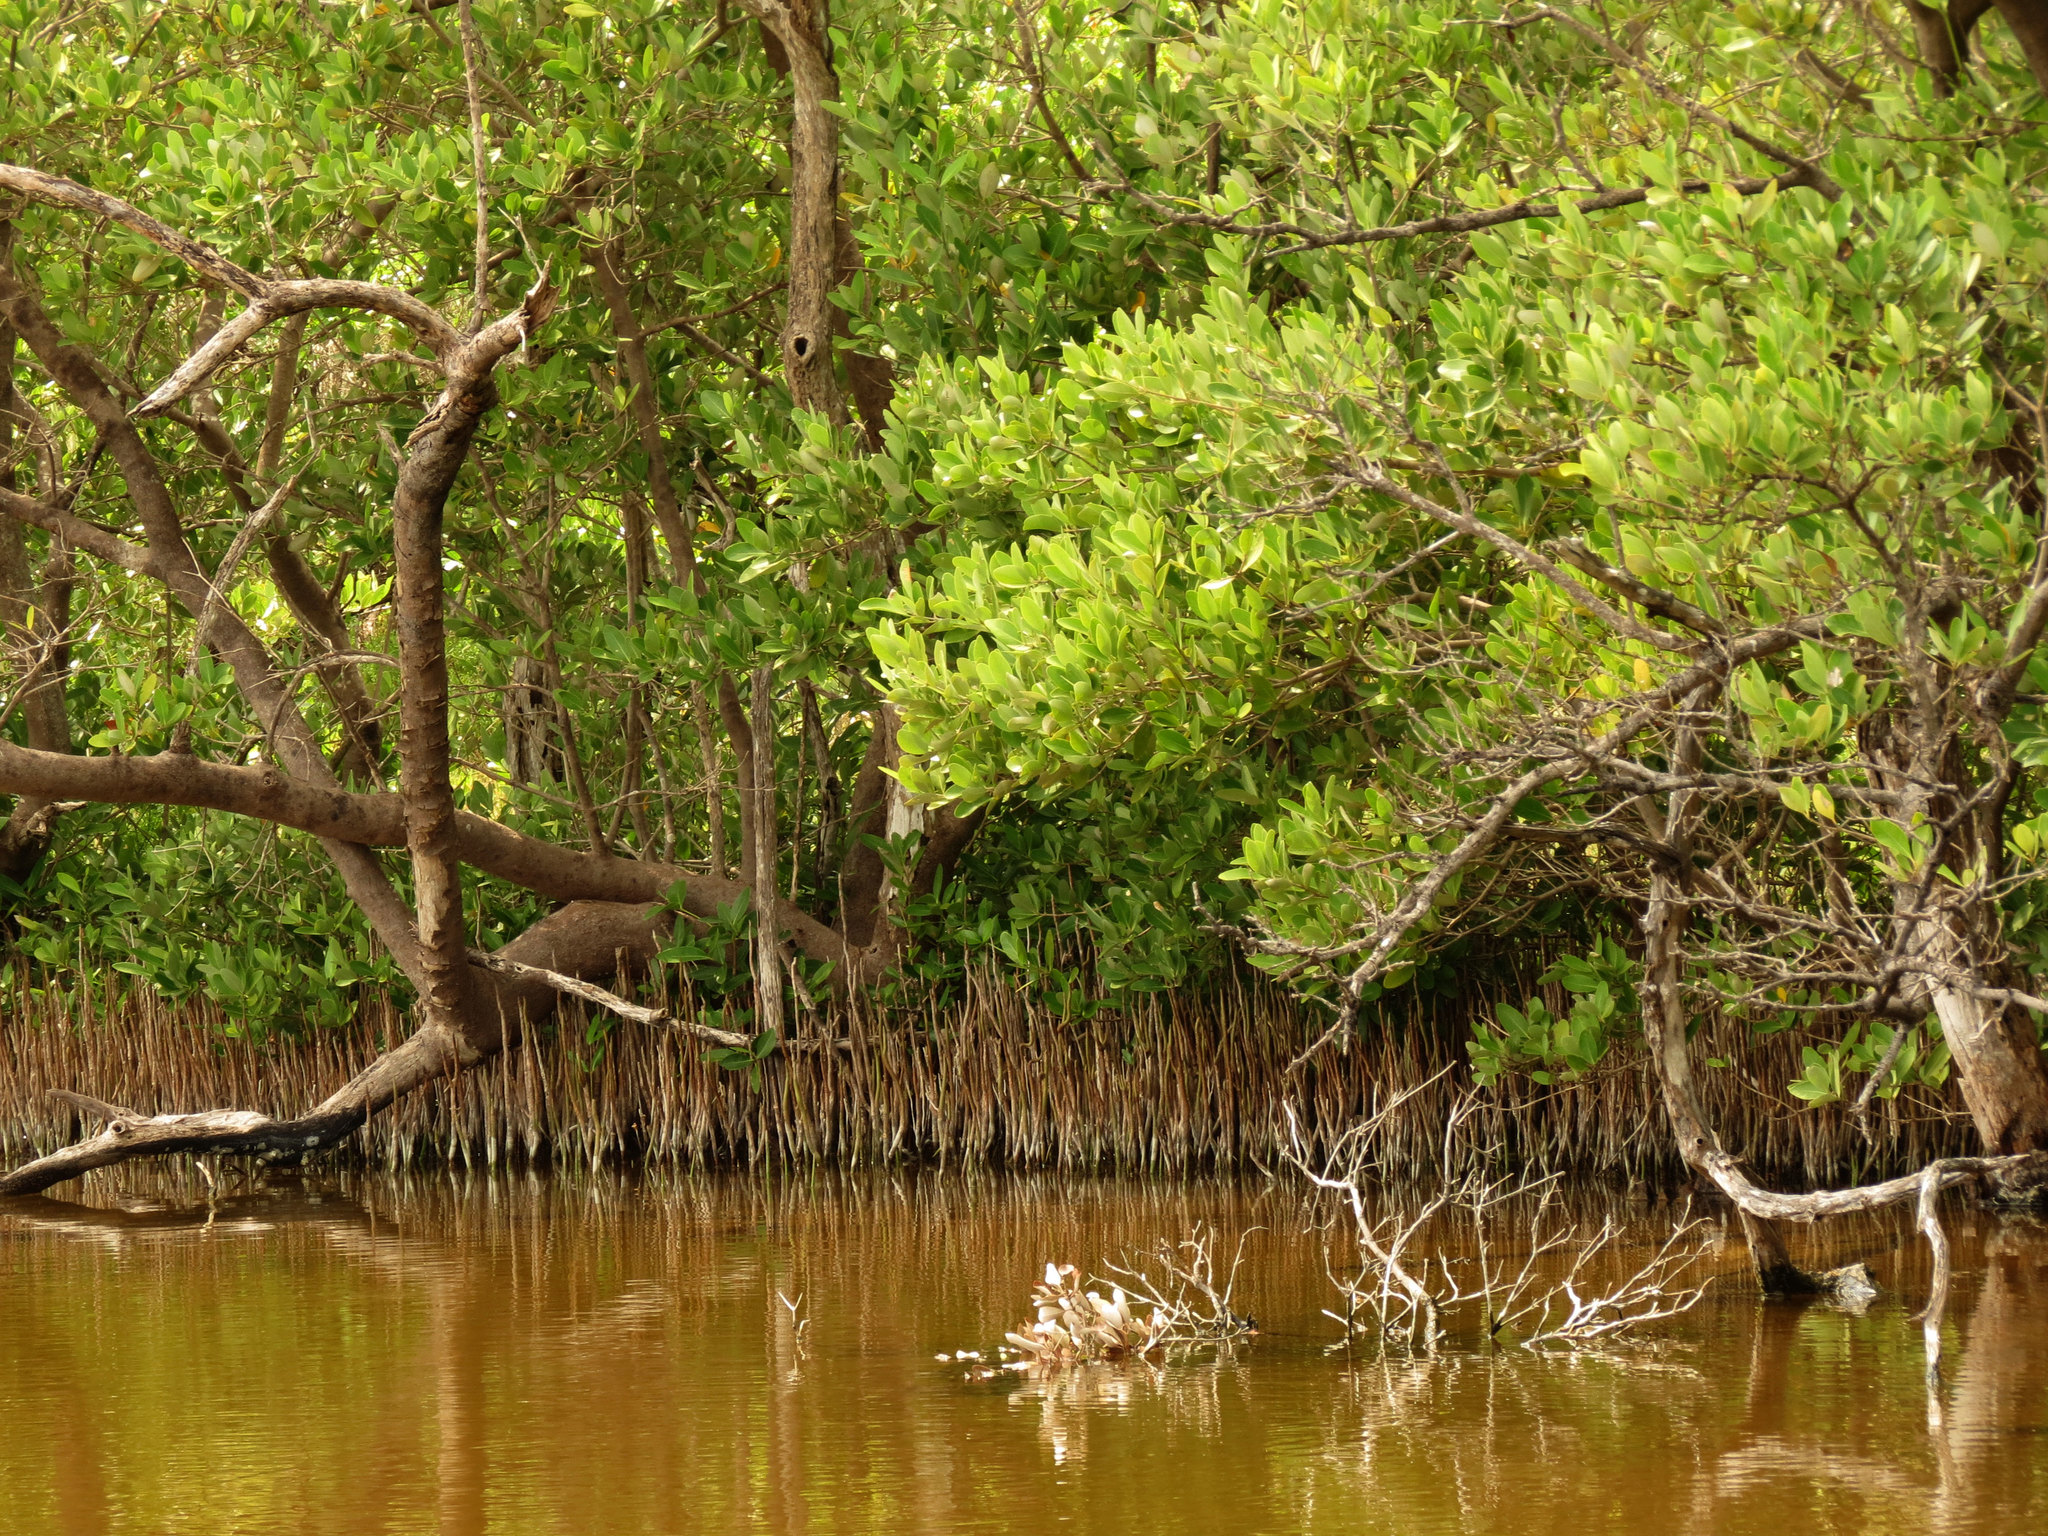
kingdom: Plantae
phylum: Tracheophyta
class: Magnoliopsida
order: Lamiales
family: Acanthaceae
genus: Avicennia
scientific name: Avicennia germinans
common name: Black mangrove
